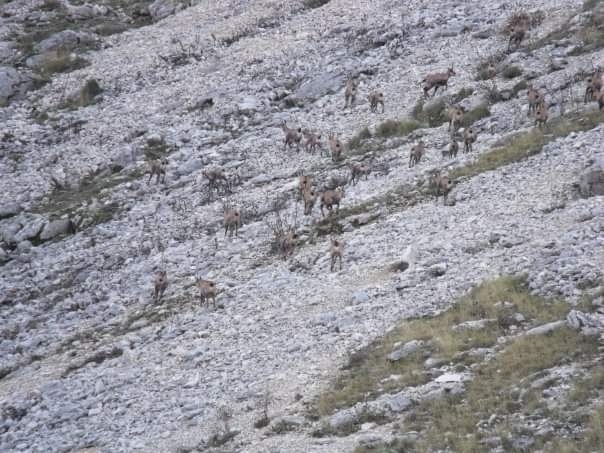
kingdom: Animalia
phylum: Chordata
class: Mammalia
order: Artiodactyla
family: Bovidae
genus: Rupicapra
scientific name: Rupicapra pyrenaica
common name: Pyrenean chamois
